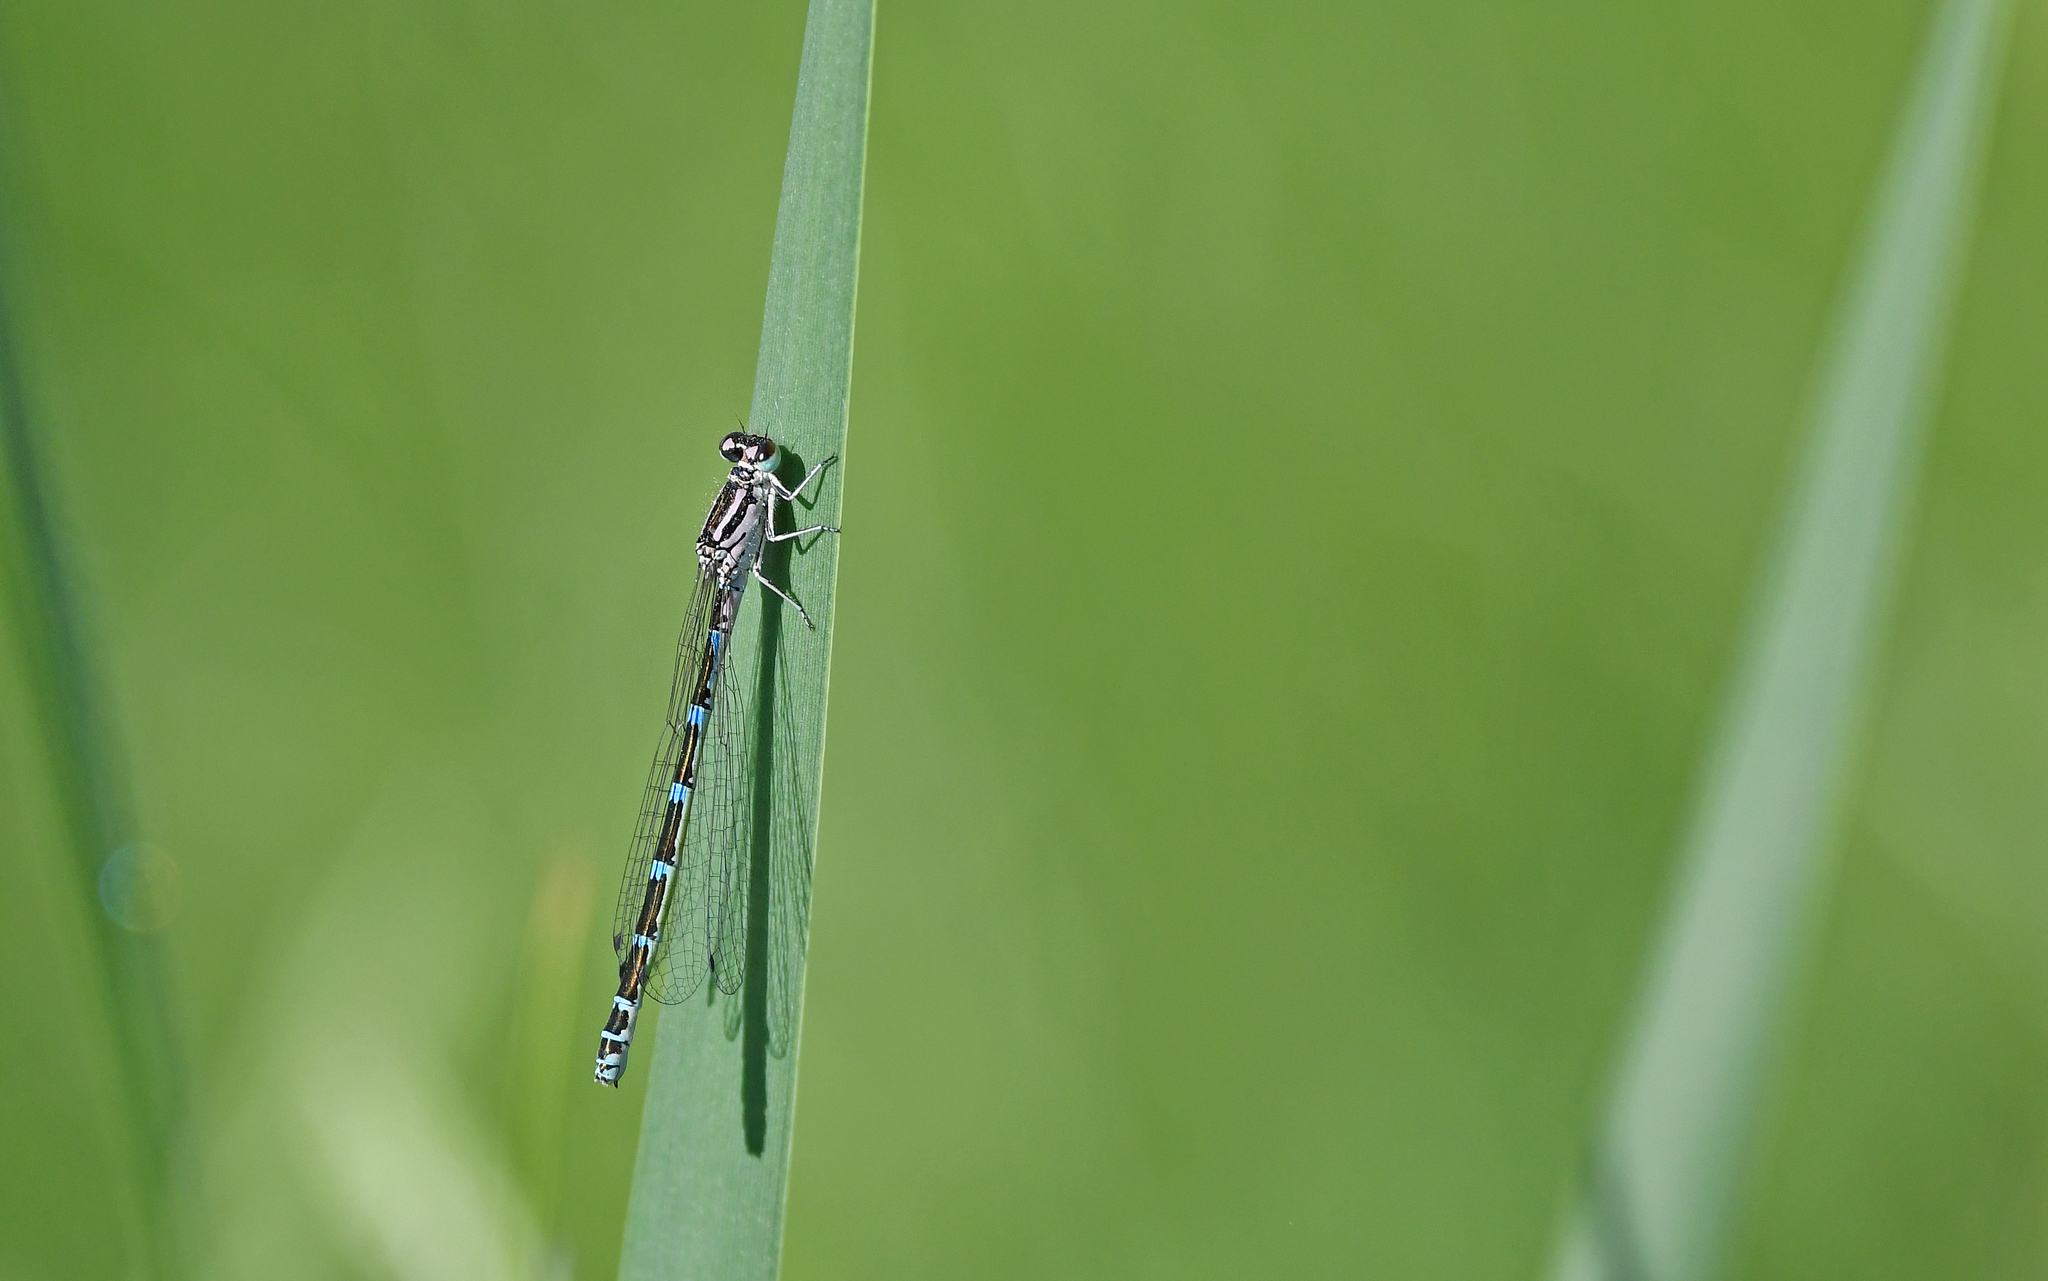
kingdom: Animalia
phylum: Arthropoda
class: Insecta
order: Odonata
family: Coenagrionidae
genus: Coenagrion
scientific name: Coenagrion ornatum
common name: Ornate bluet
